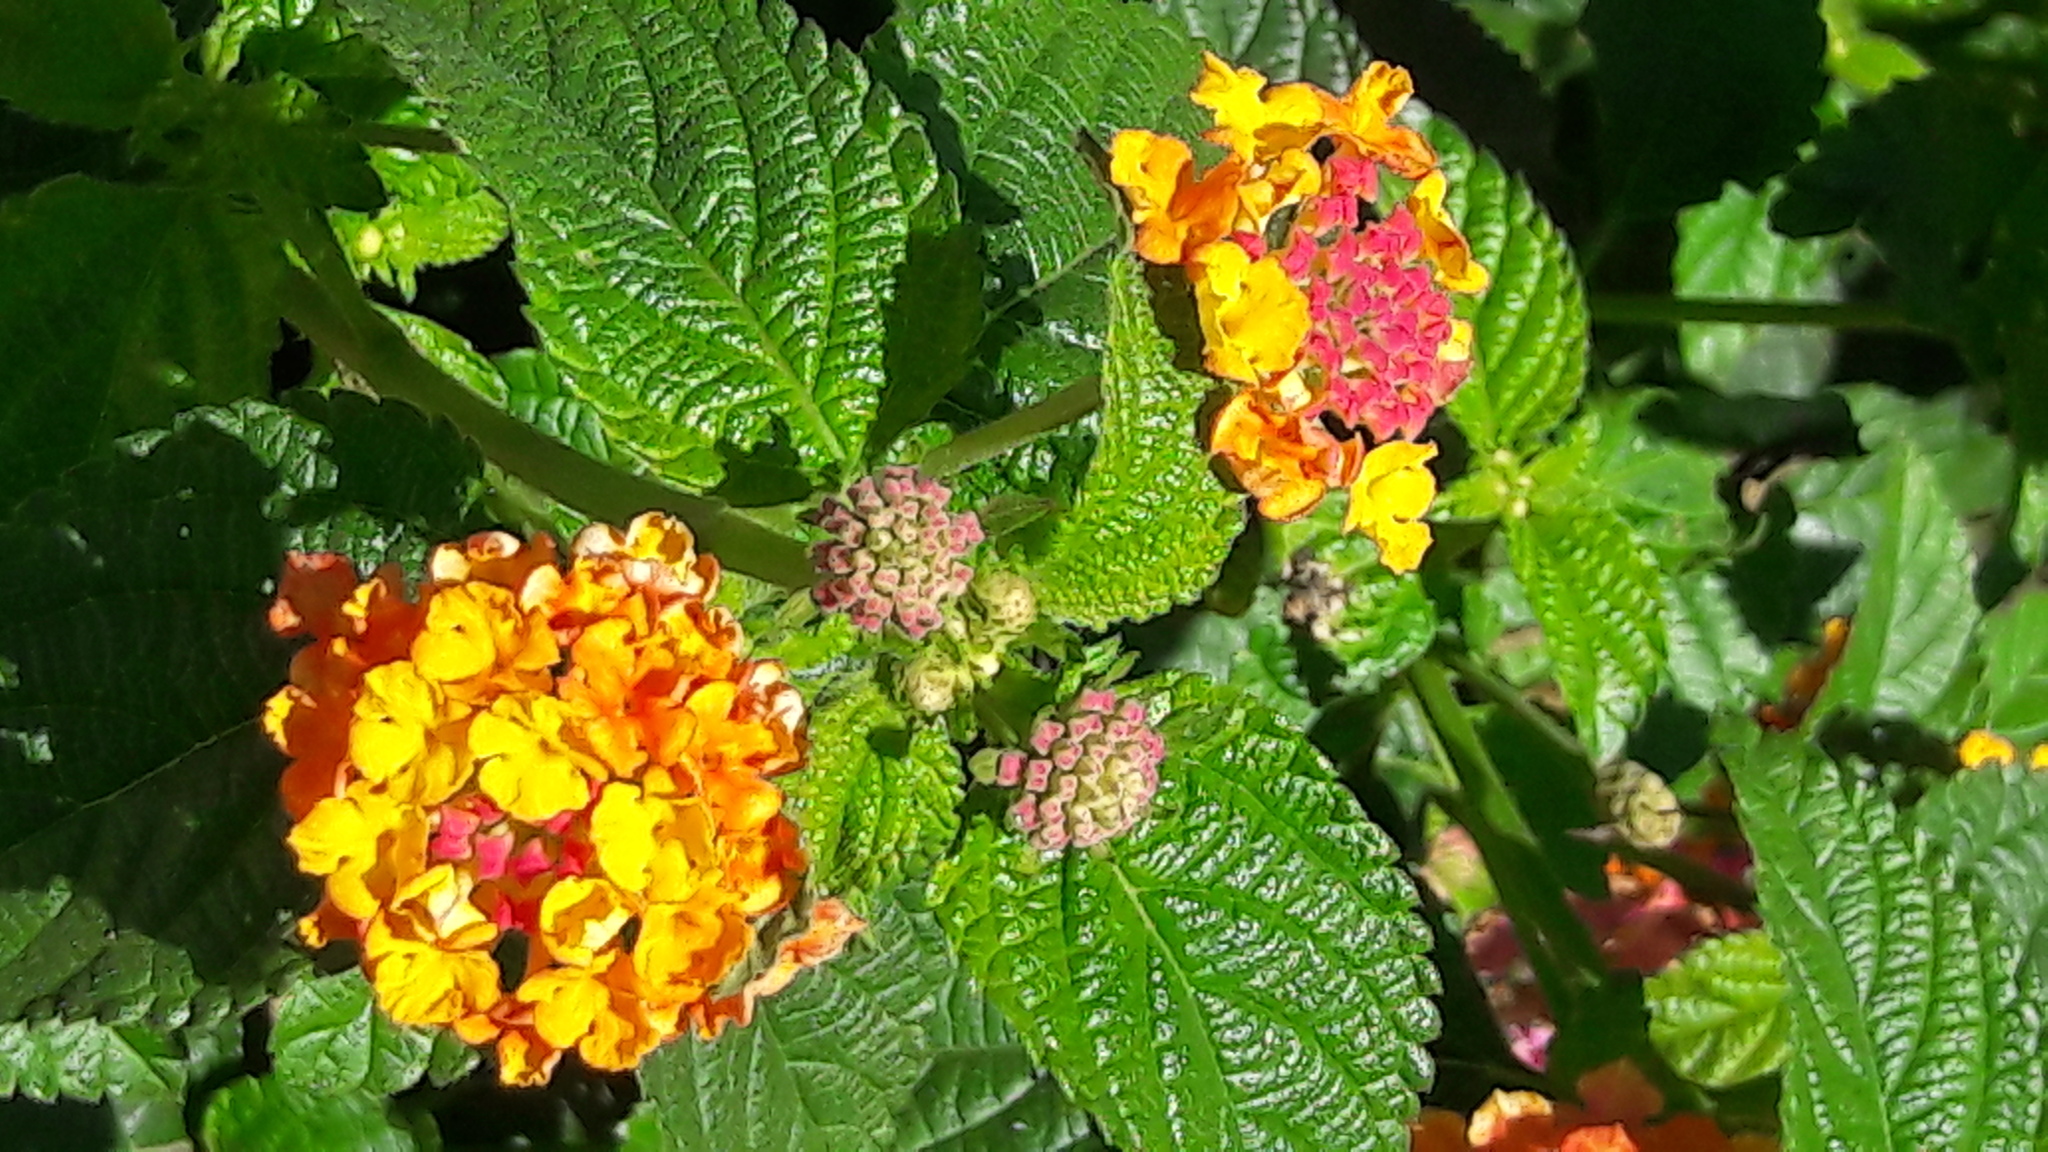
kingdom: Plantae
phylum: Tracheophyta
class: Magnoliopsida
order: Lamiales
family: Verbenaceae
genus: Lantana
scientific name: Lantana camara
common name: Lantana
